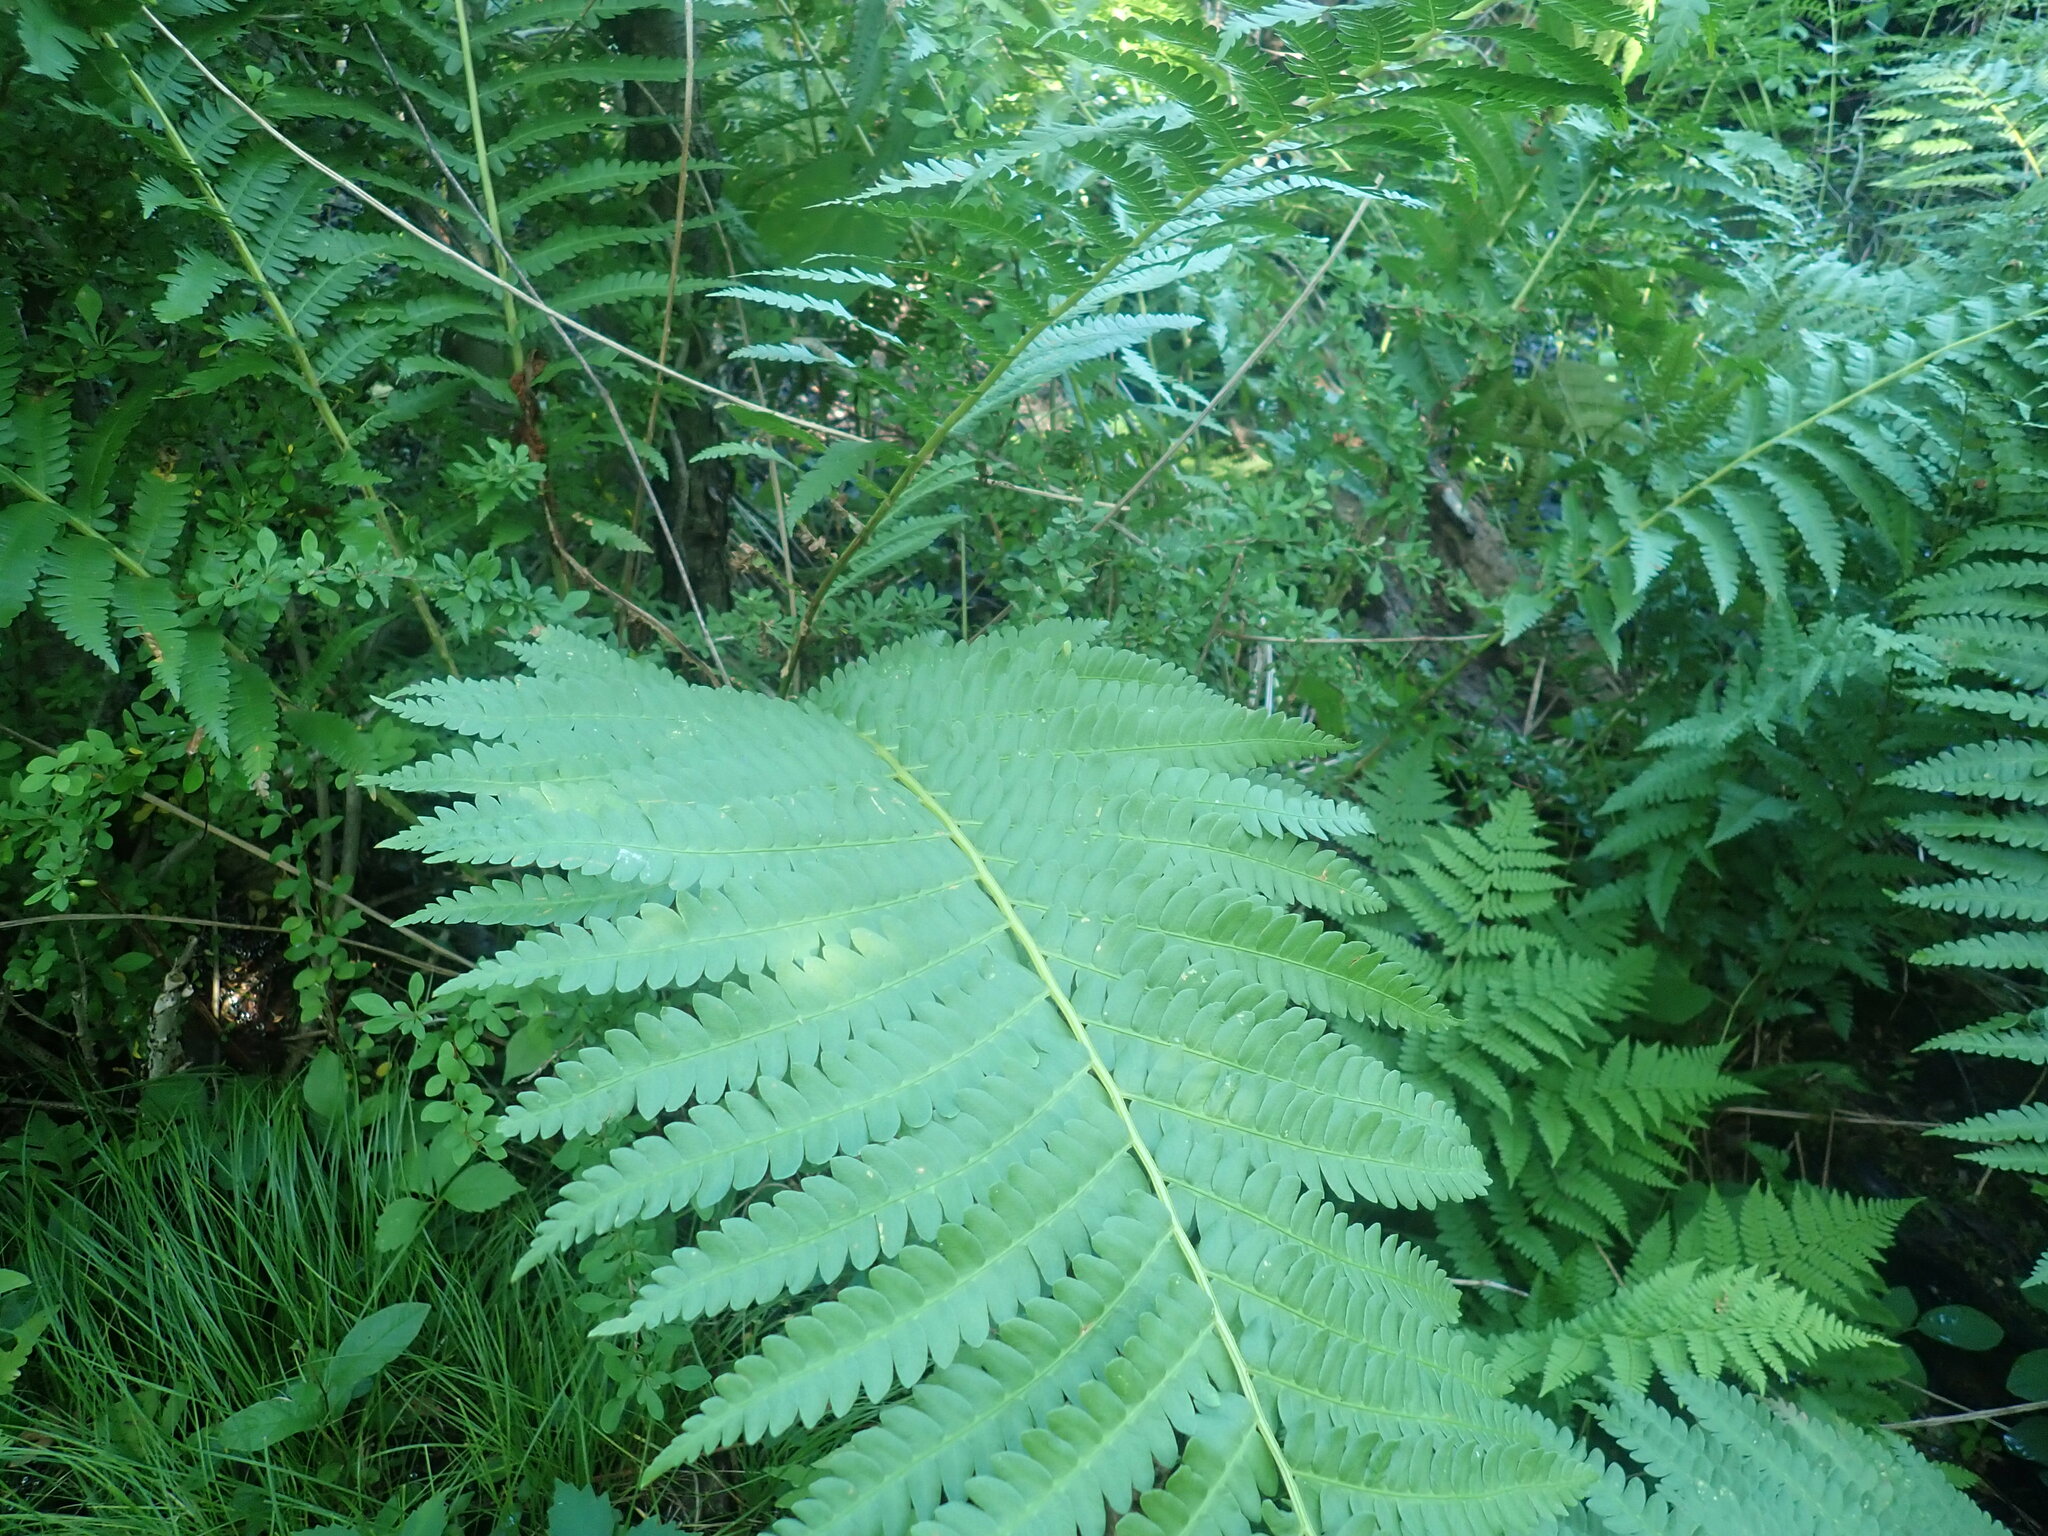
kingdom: Plantae
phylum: Tracheophyta
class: Polypodiopsida
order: Osmundales
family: Osmundaceae
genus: Osmundastrum
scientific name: Osmundastrum cinnamomeum
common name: Cinnamon fern
